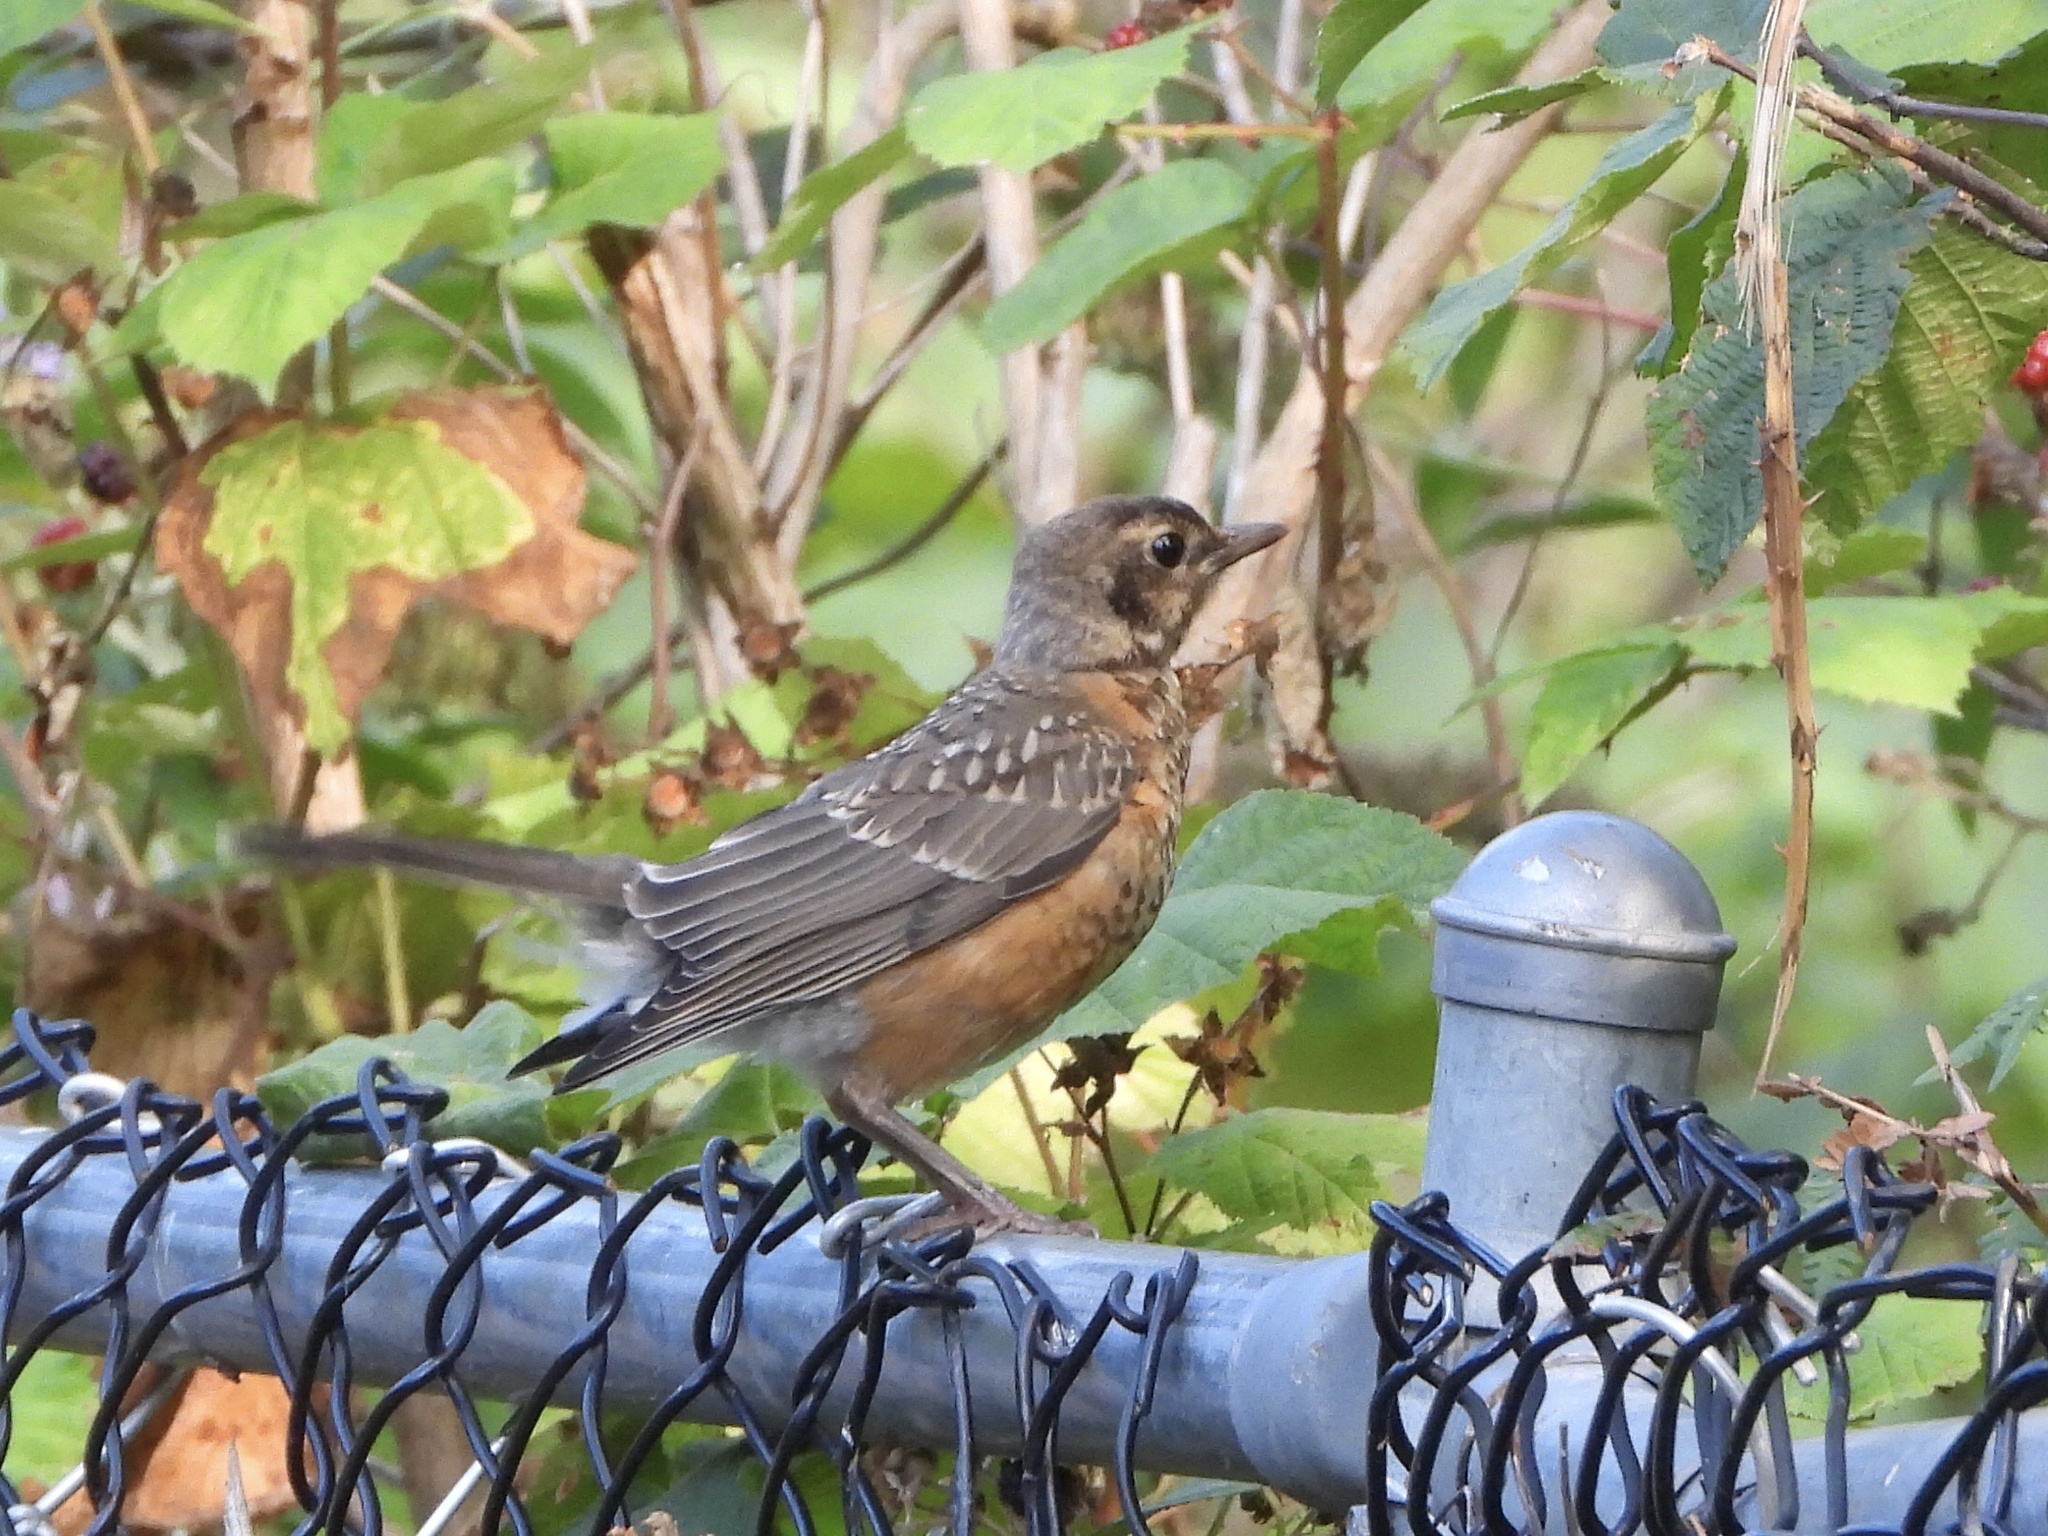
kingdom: Animalia
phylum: Chordata
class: Aves
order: Passeriformes
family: Turdidae
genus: Turdus
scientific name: Turdus migratorius
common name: American robin
